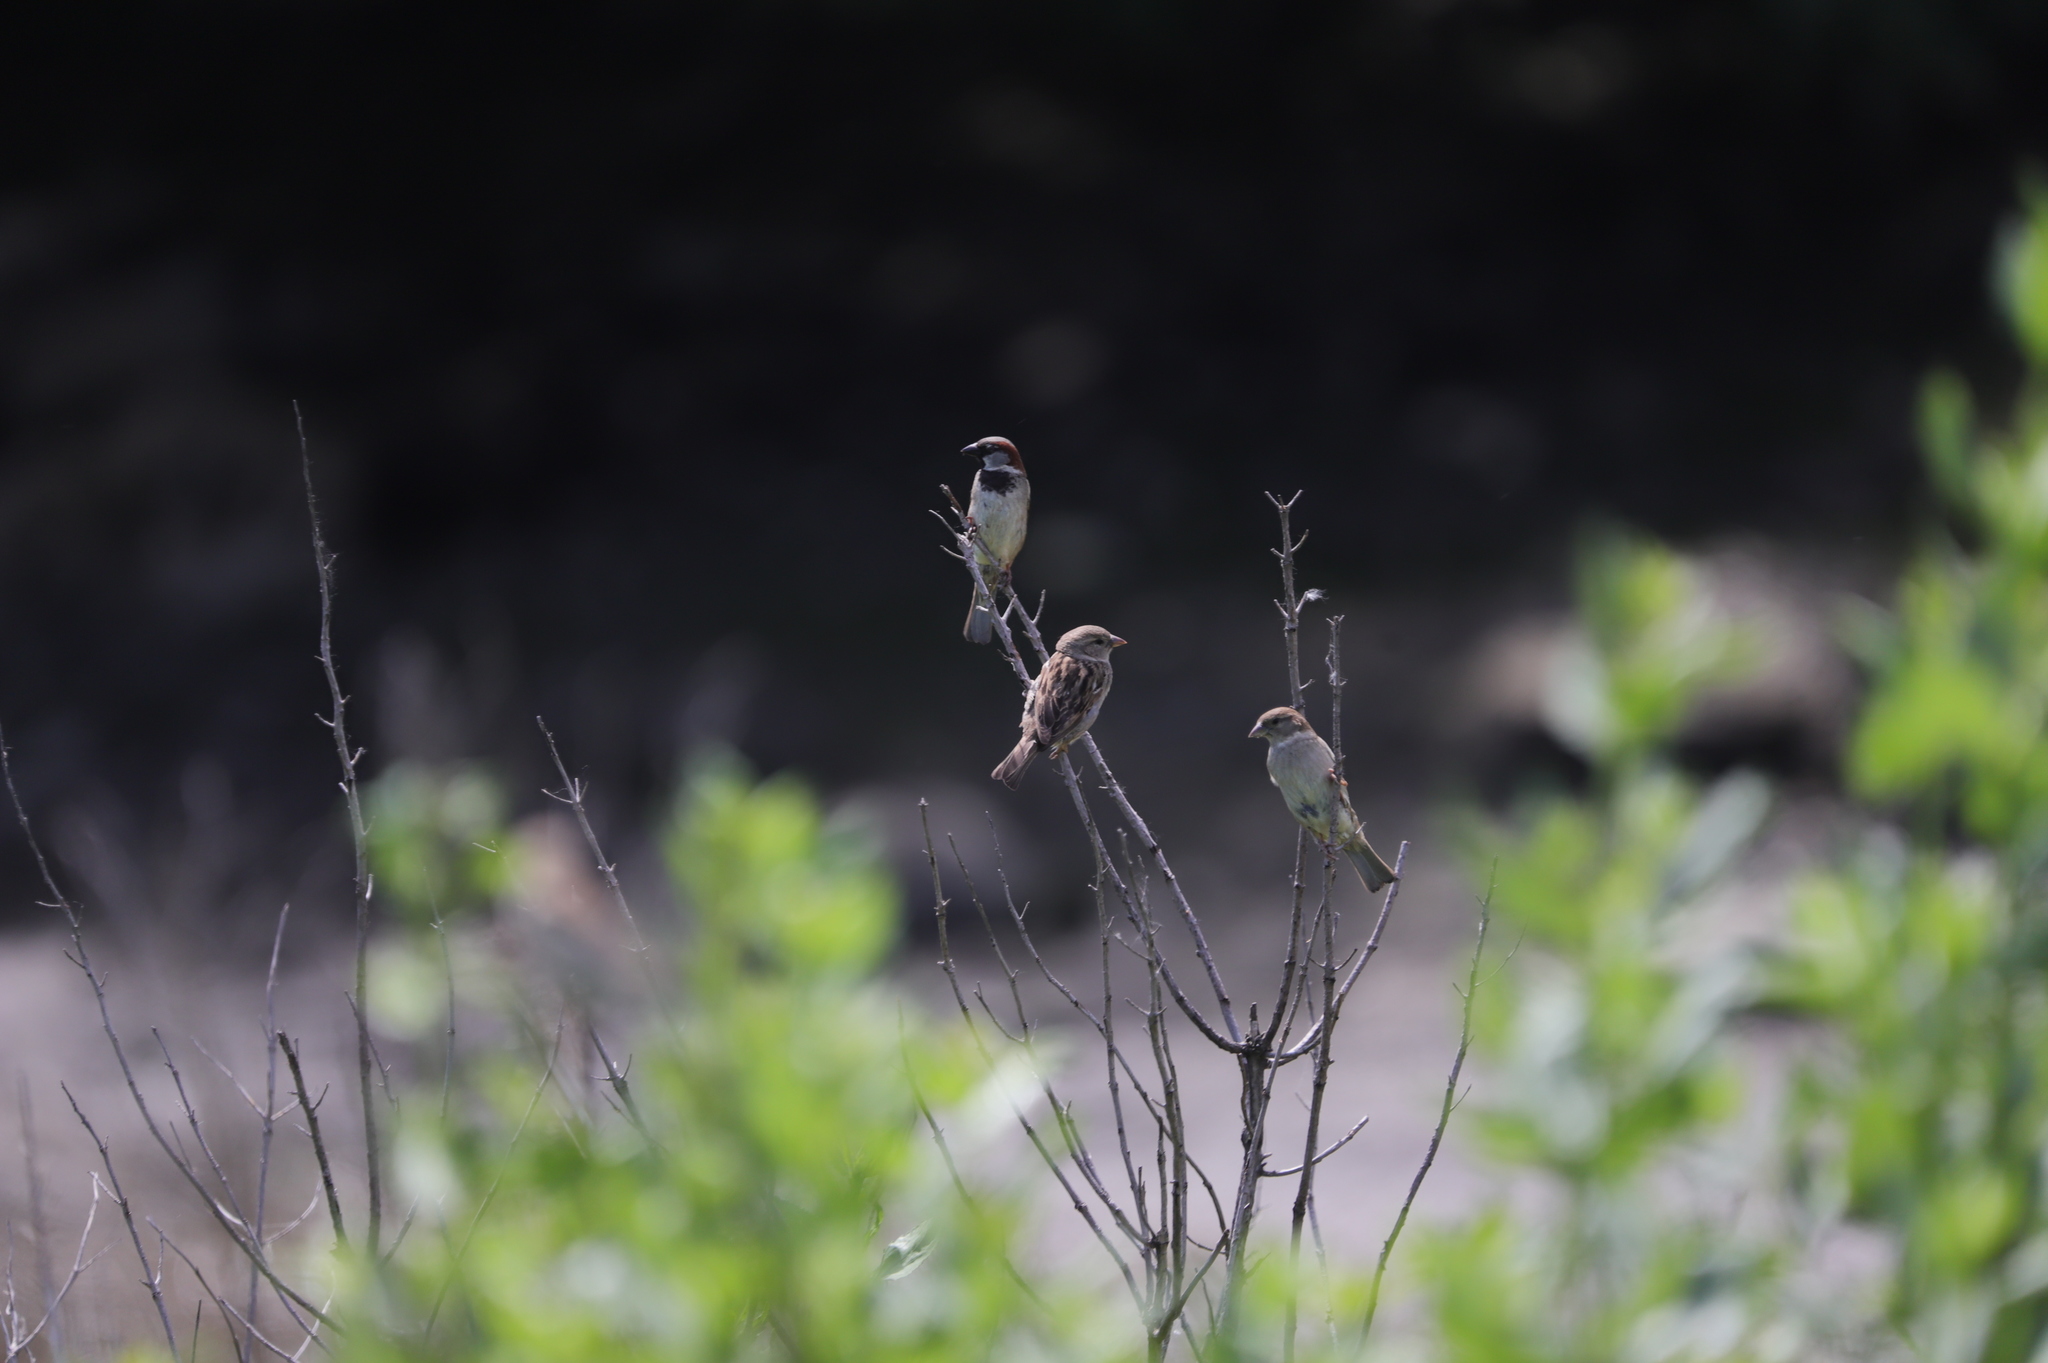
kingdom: Animalia
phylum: Chordata
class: Aves
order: Passeriformes
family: Passeridae
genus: Passer
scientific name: Passer domesticus
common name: House sparrow
